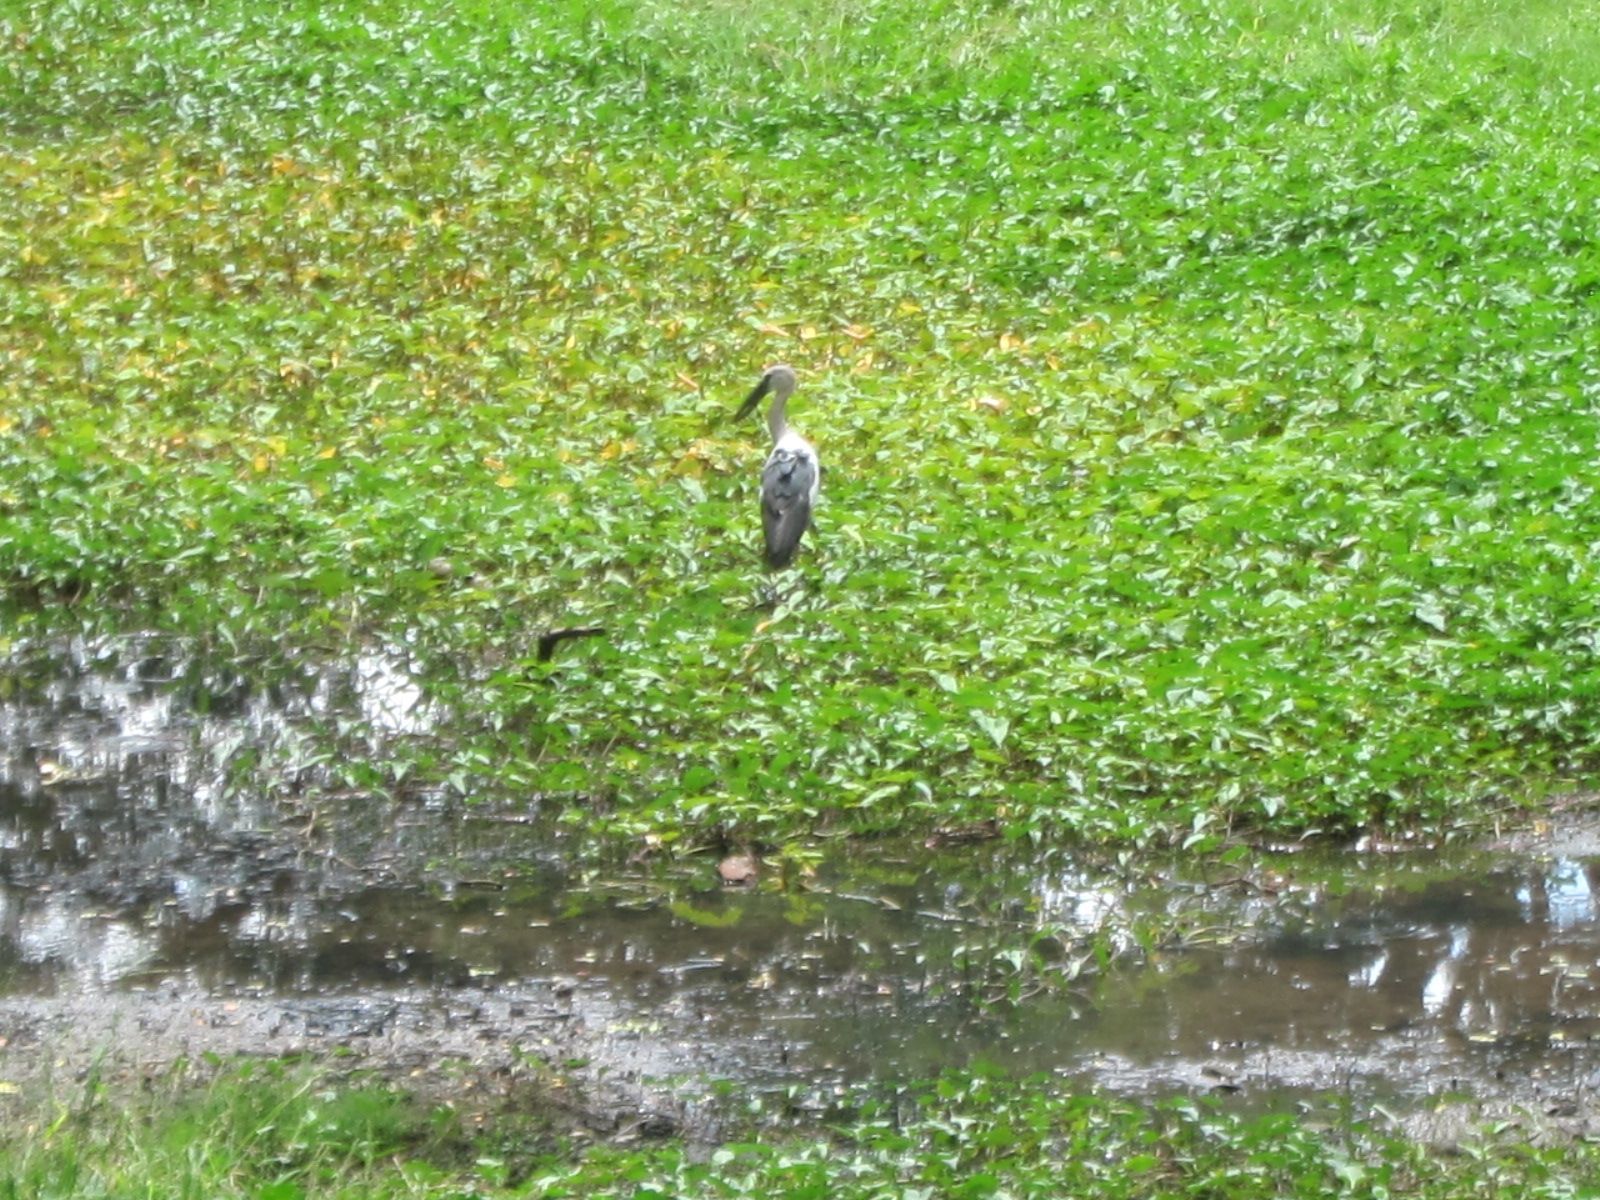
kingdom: Animalia
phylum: Chordata
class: Aves
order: Ciconiiformes
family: Ciconiidae
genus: Anastomus
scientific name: Anastomus oscitans
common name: Asian openbill
